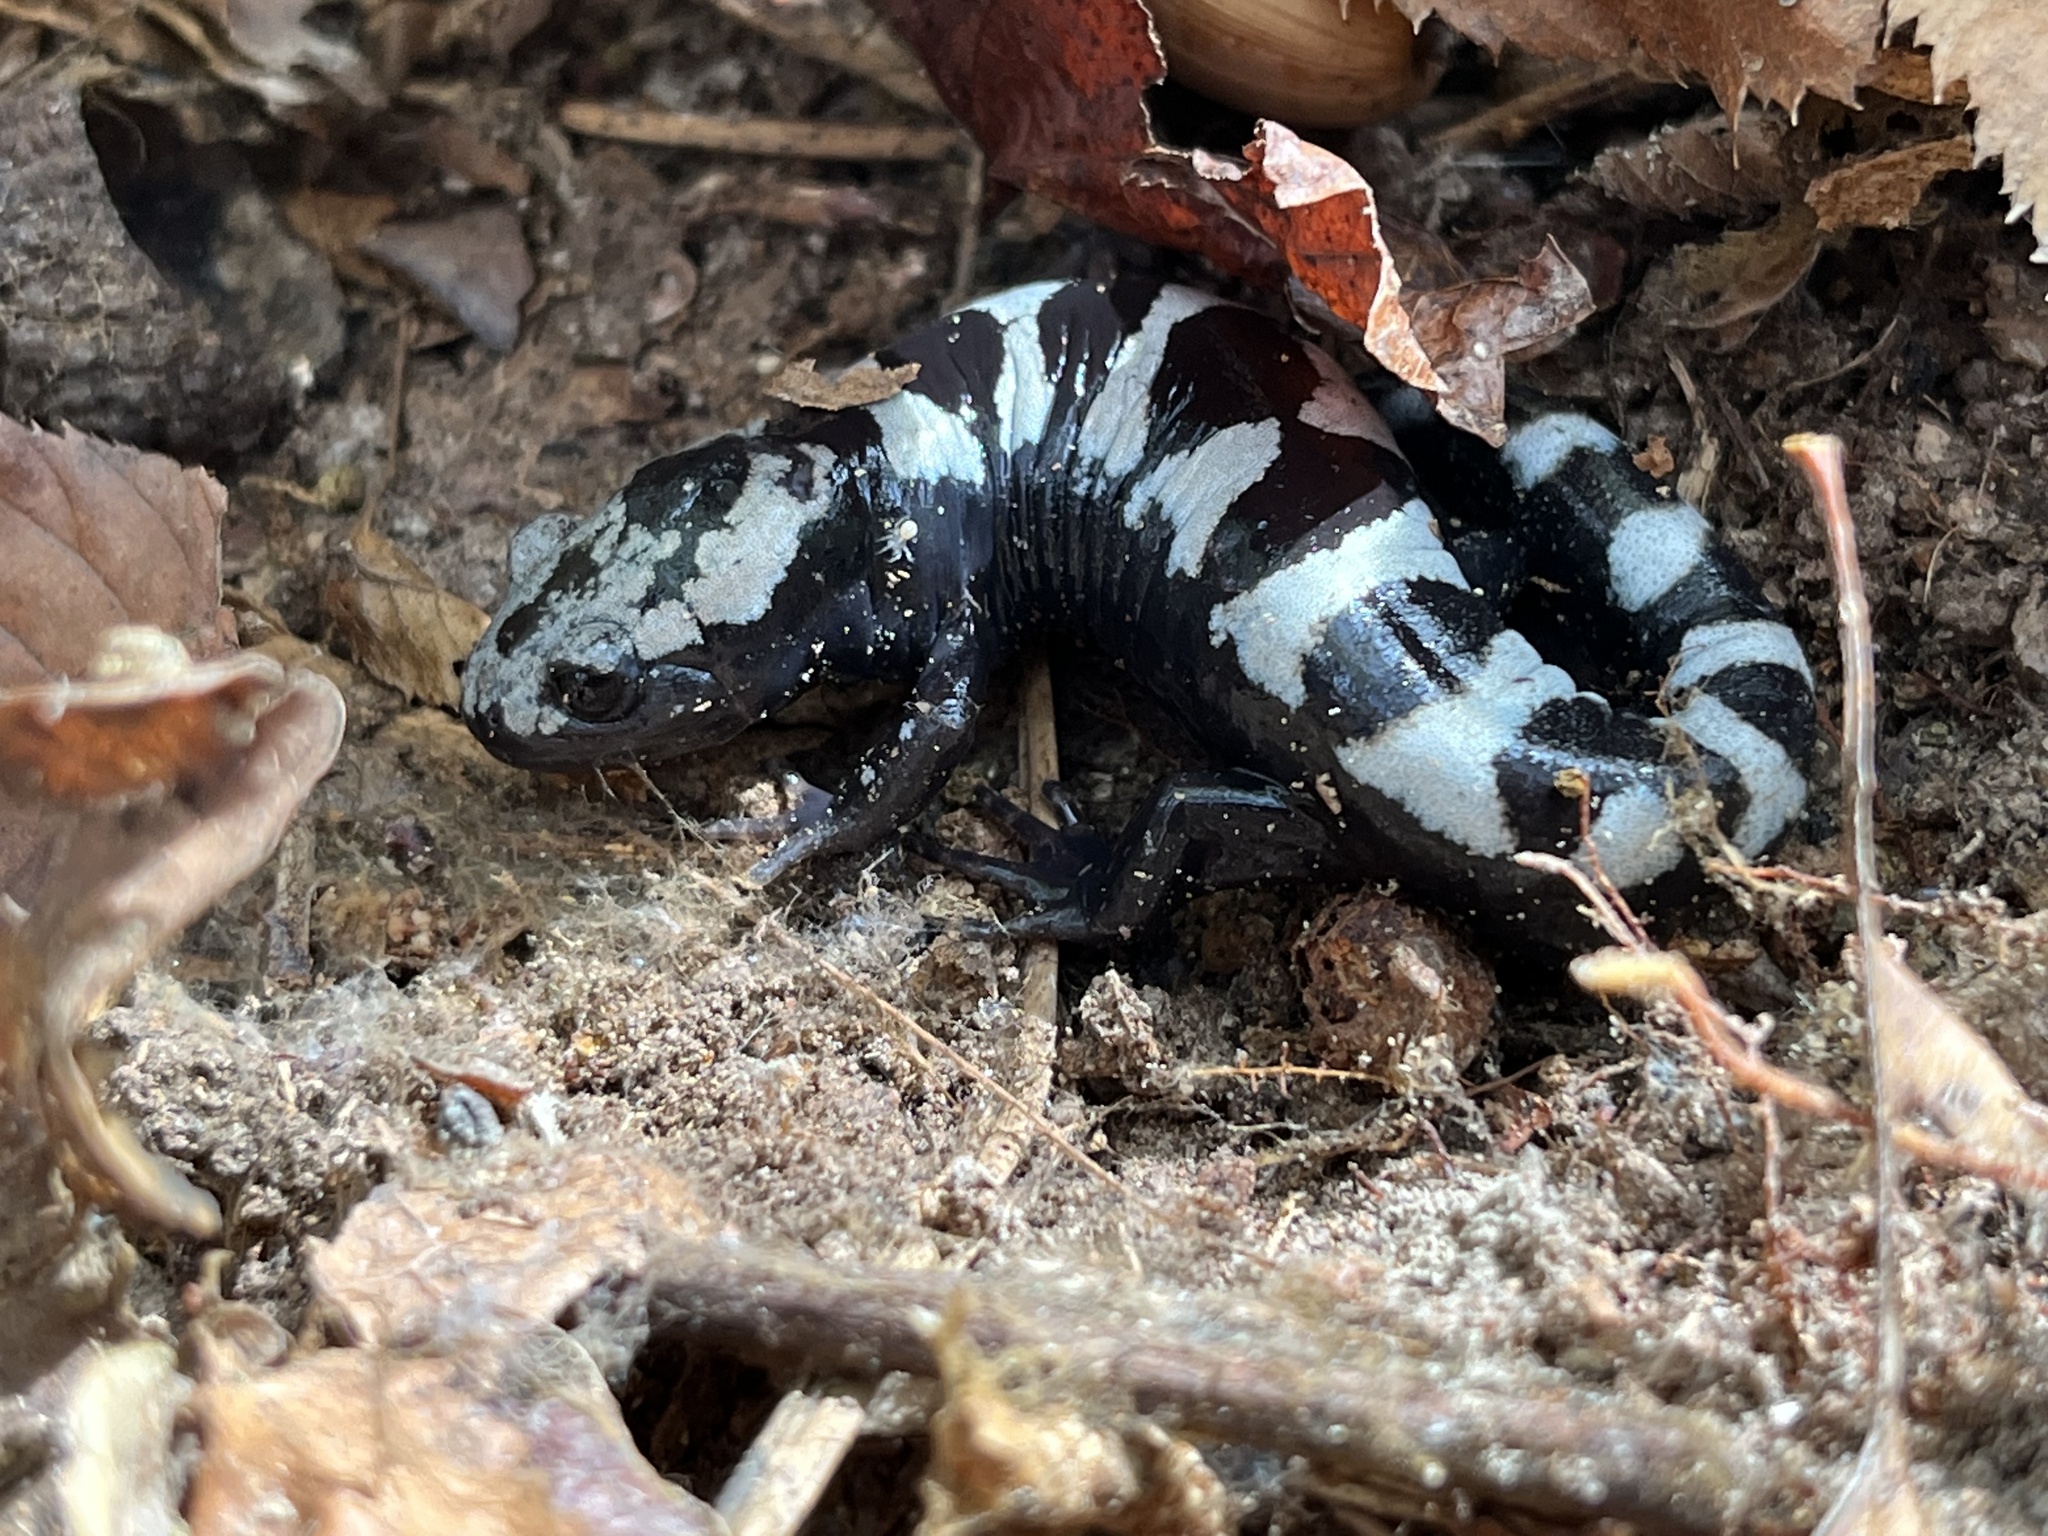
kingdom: Animalia
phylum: Chordata
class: Amphibia
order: Caudata
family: Ambystomatidae
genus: Ambystoma
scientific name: Ambystoma opacum
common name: Marbled salamander
